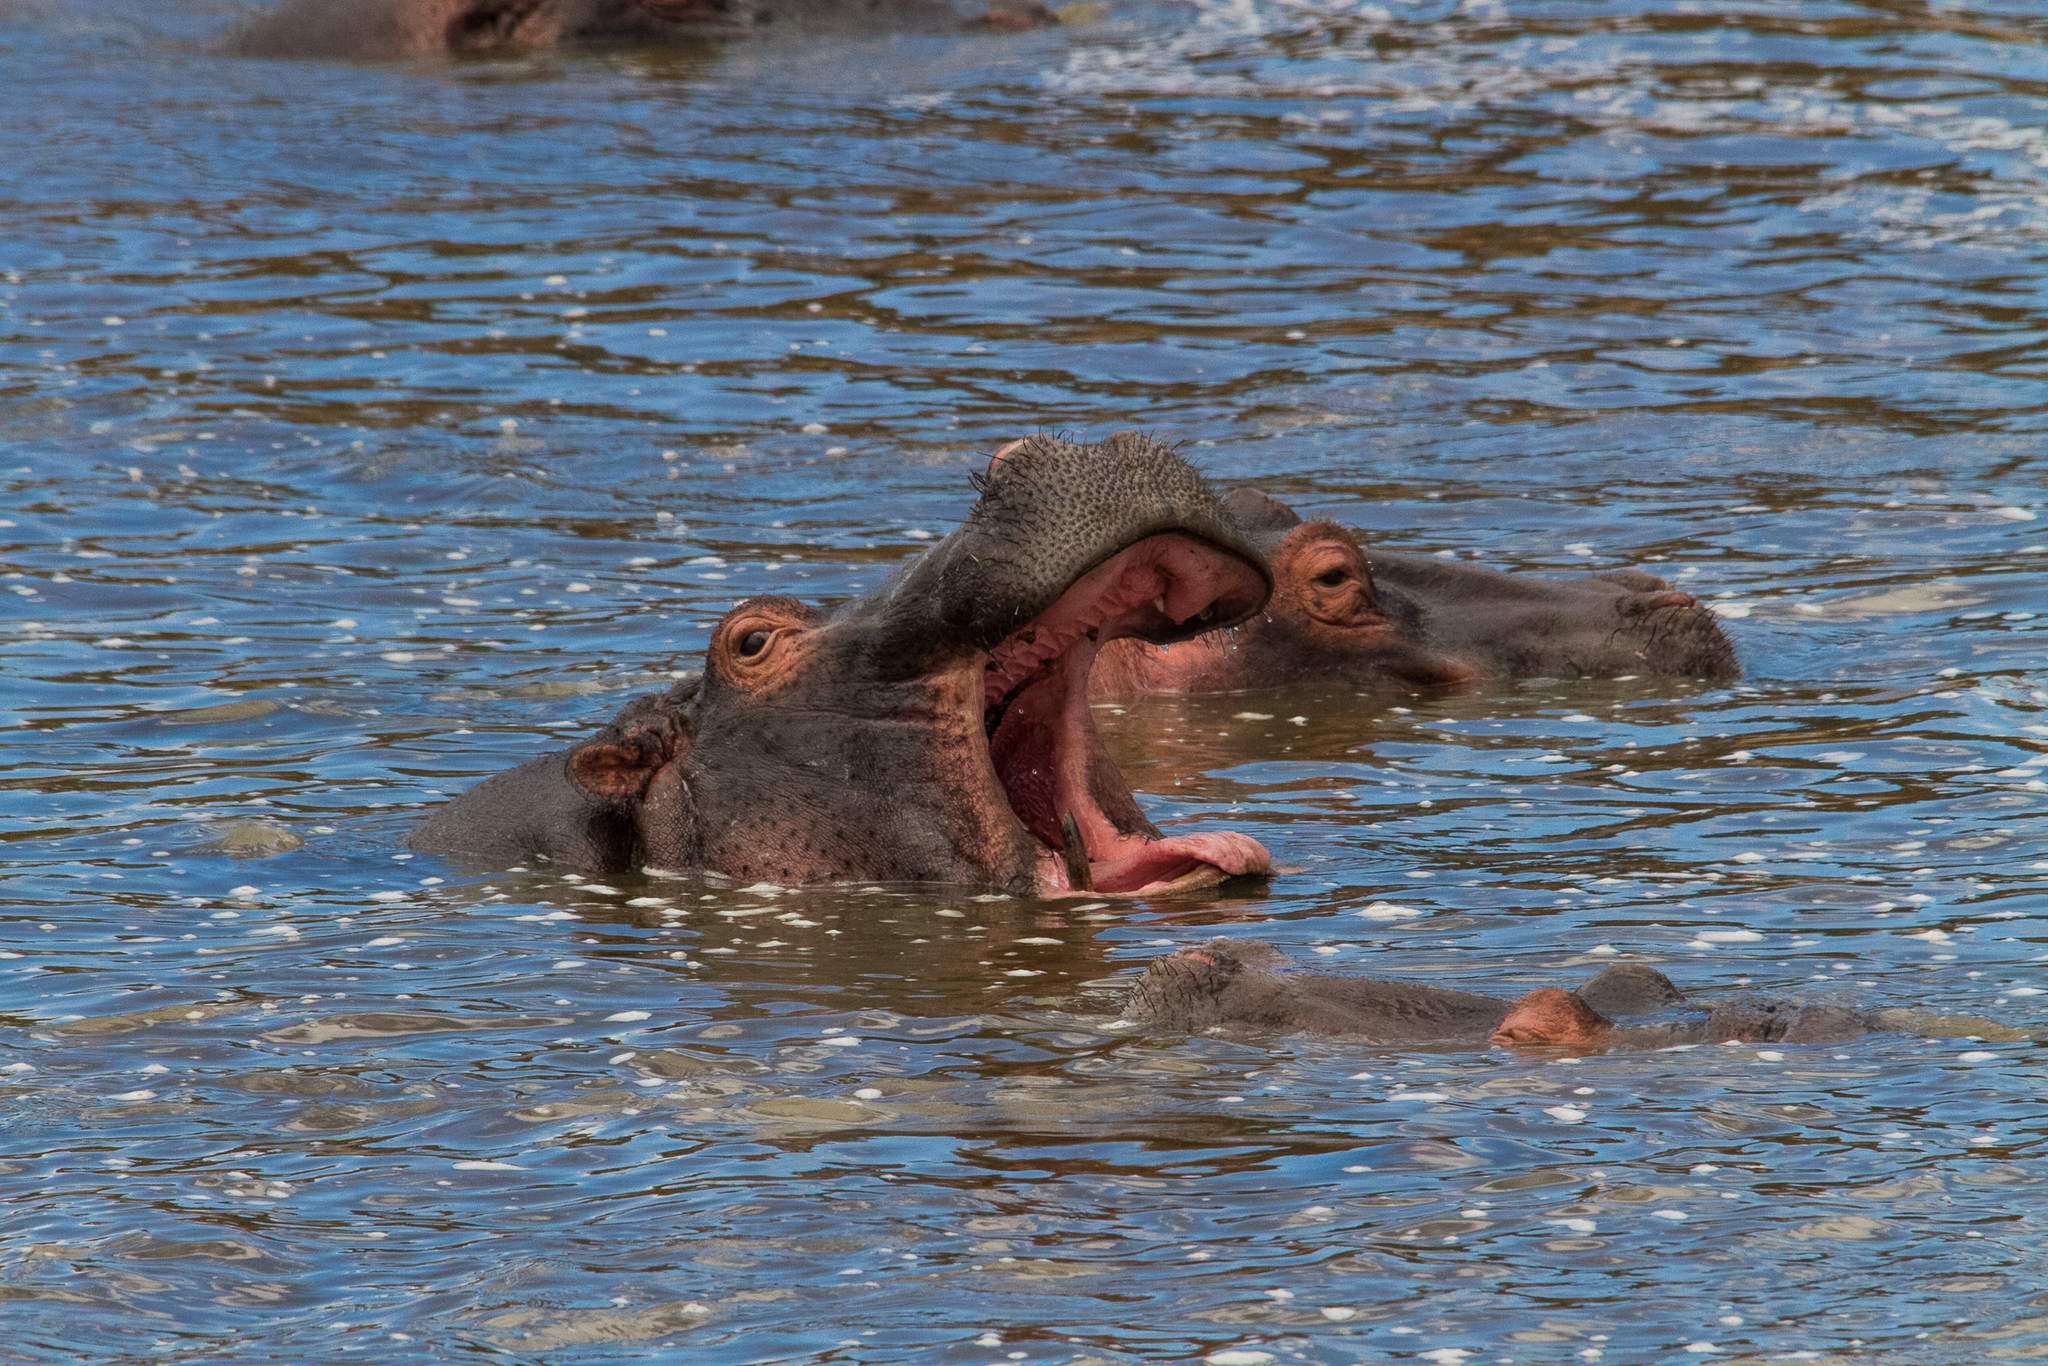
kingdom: Animalia
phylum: Chordata
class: Mammalia
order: Artiodactyla
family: Hippopotamidae
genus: Hippopotamus
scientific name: Hippopotamus amphibius
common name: Common hippopotamus
